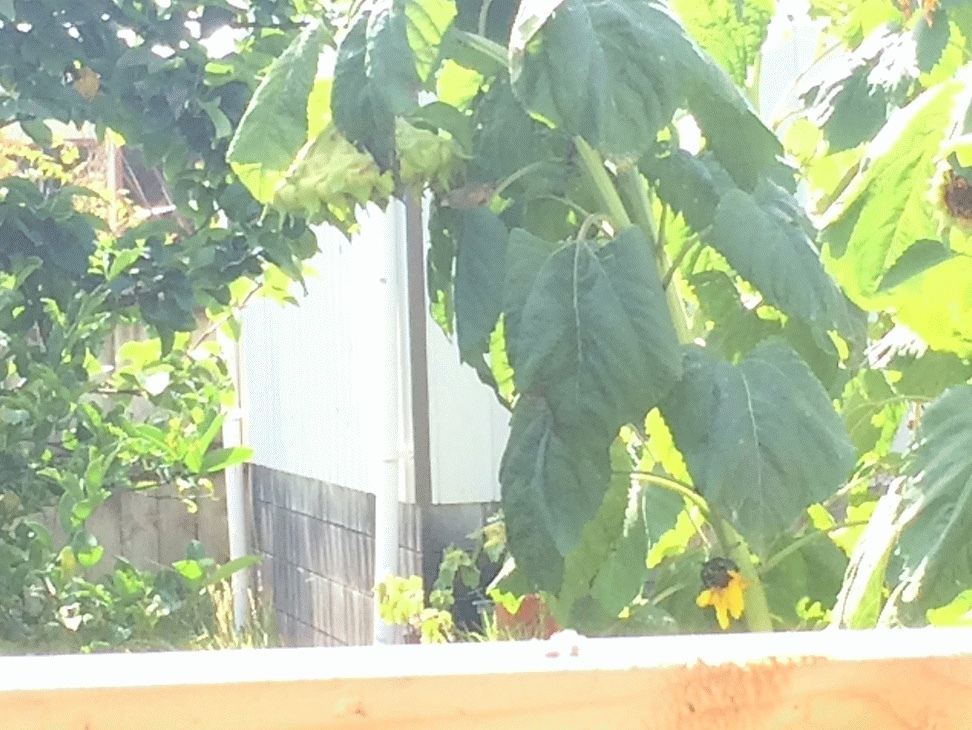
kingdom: Plantae
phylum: Tracheophyta
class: Liliopsida
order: Poales
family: Poaceae
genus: Chloris
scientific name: Chloris chloris
